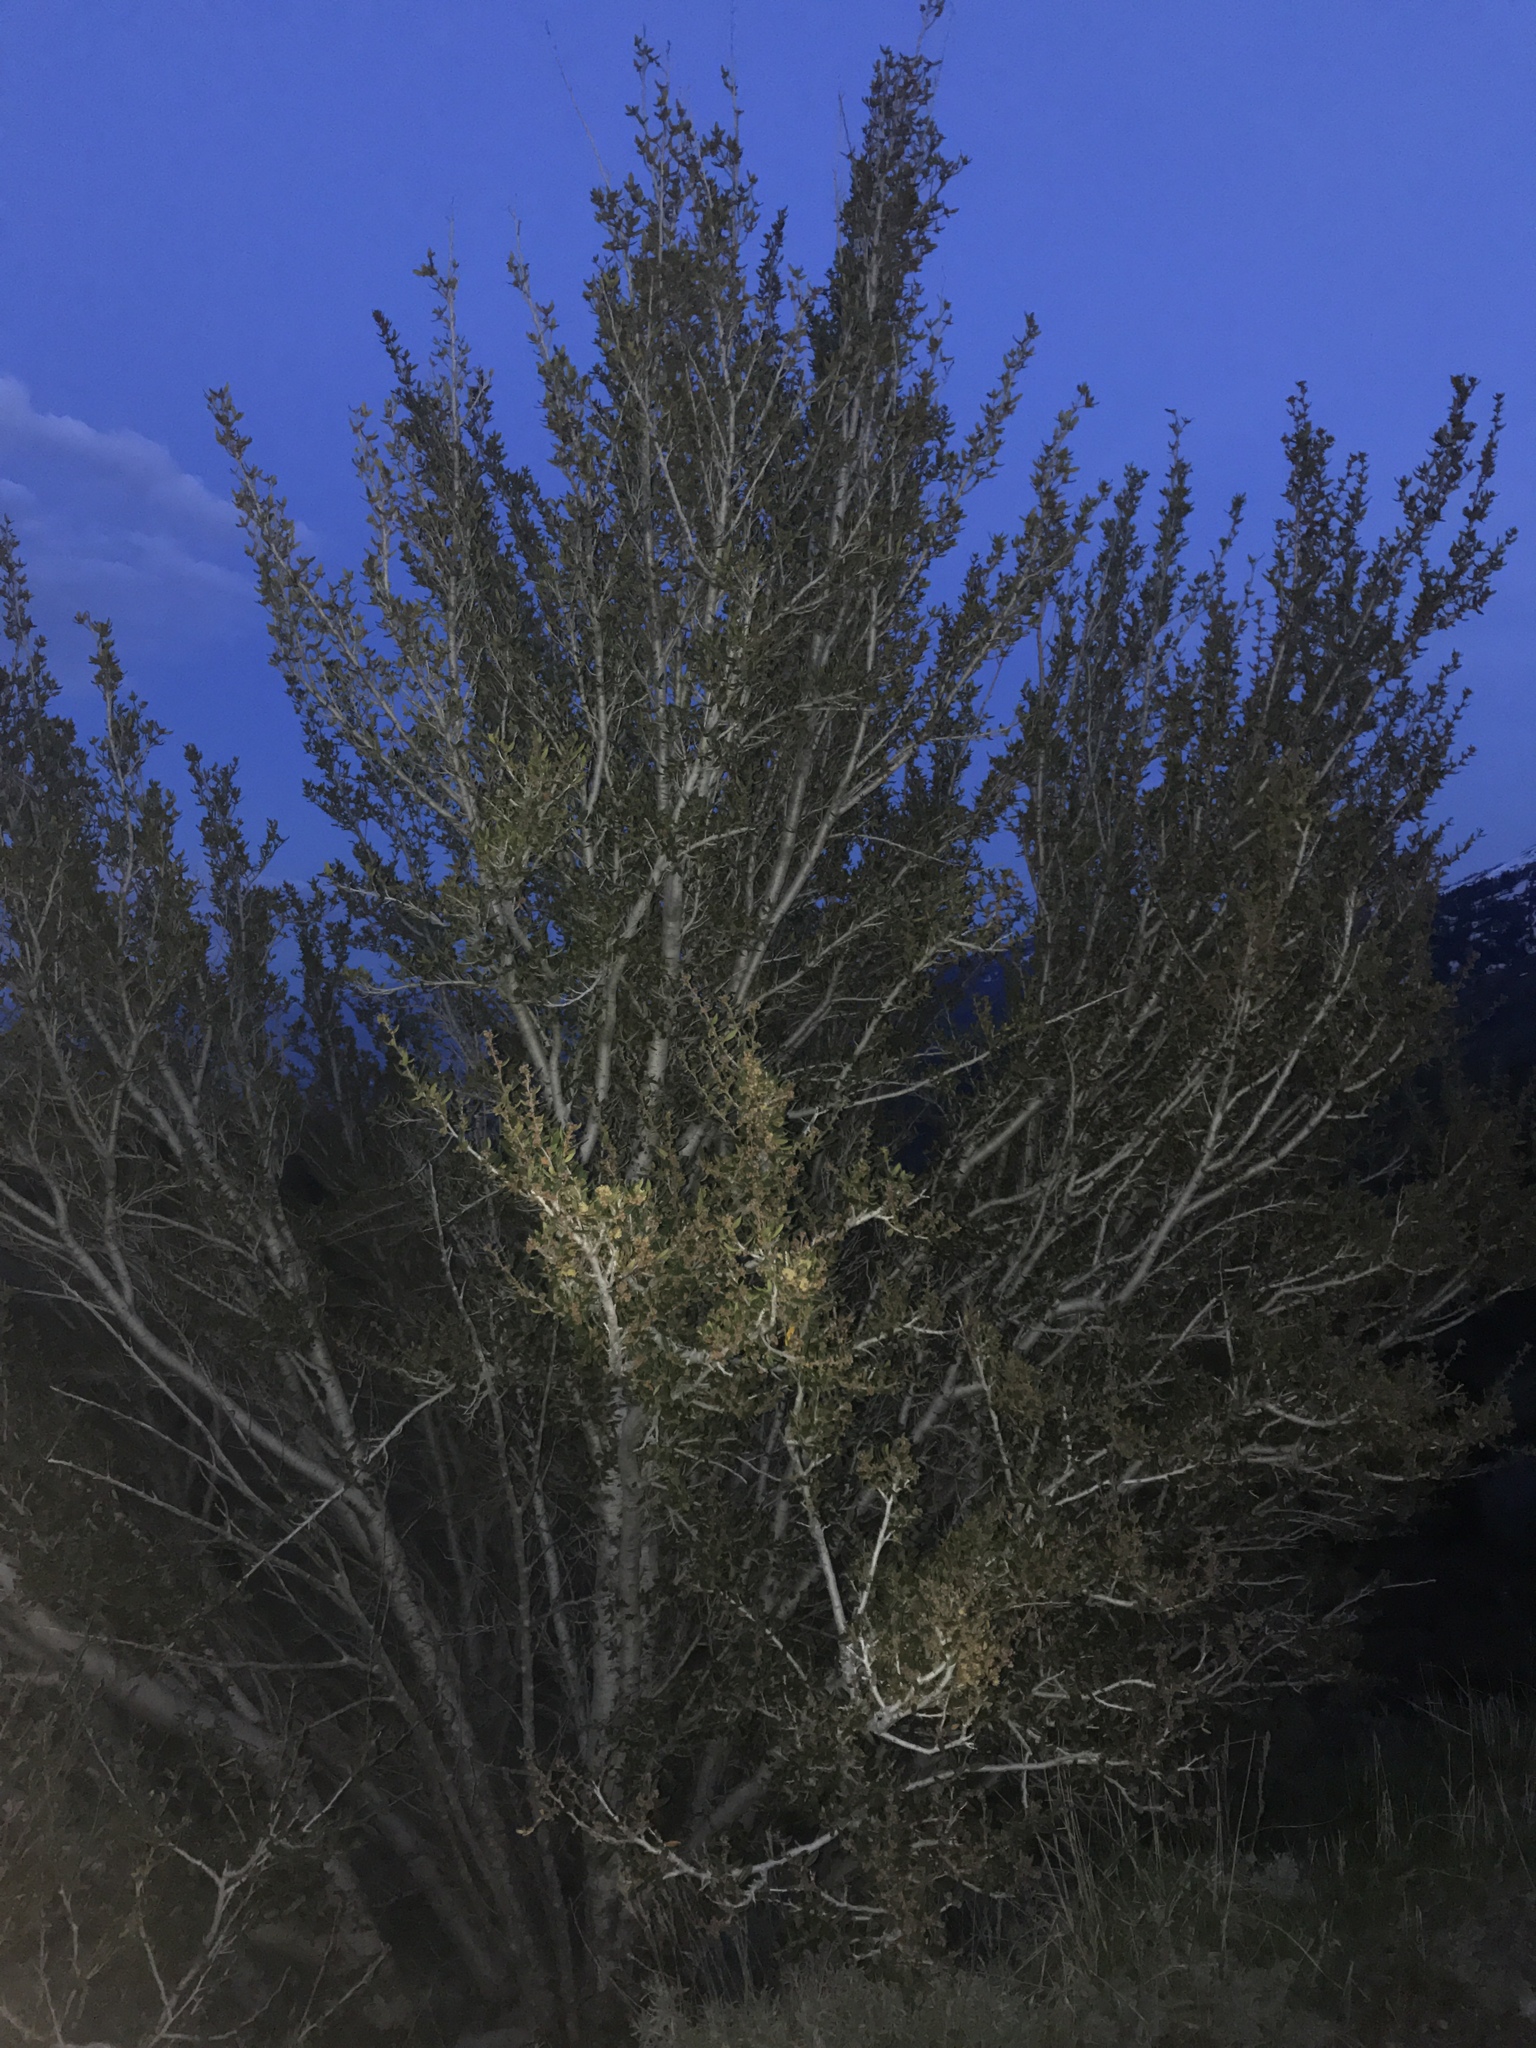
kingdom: Plantae
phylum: Tracheophyta
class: Magnoliopsida
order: Rosales
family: Rosaceae
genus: Cercocarpus
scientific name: Cercocarpus ledifolius
